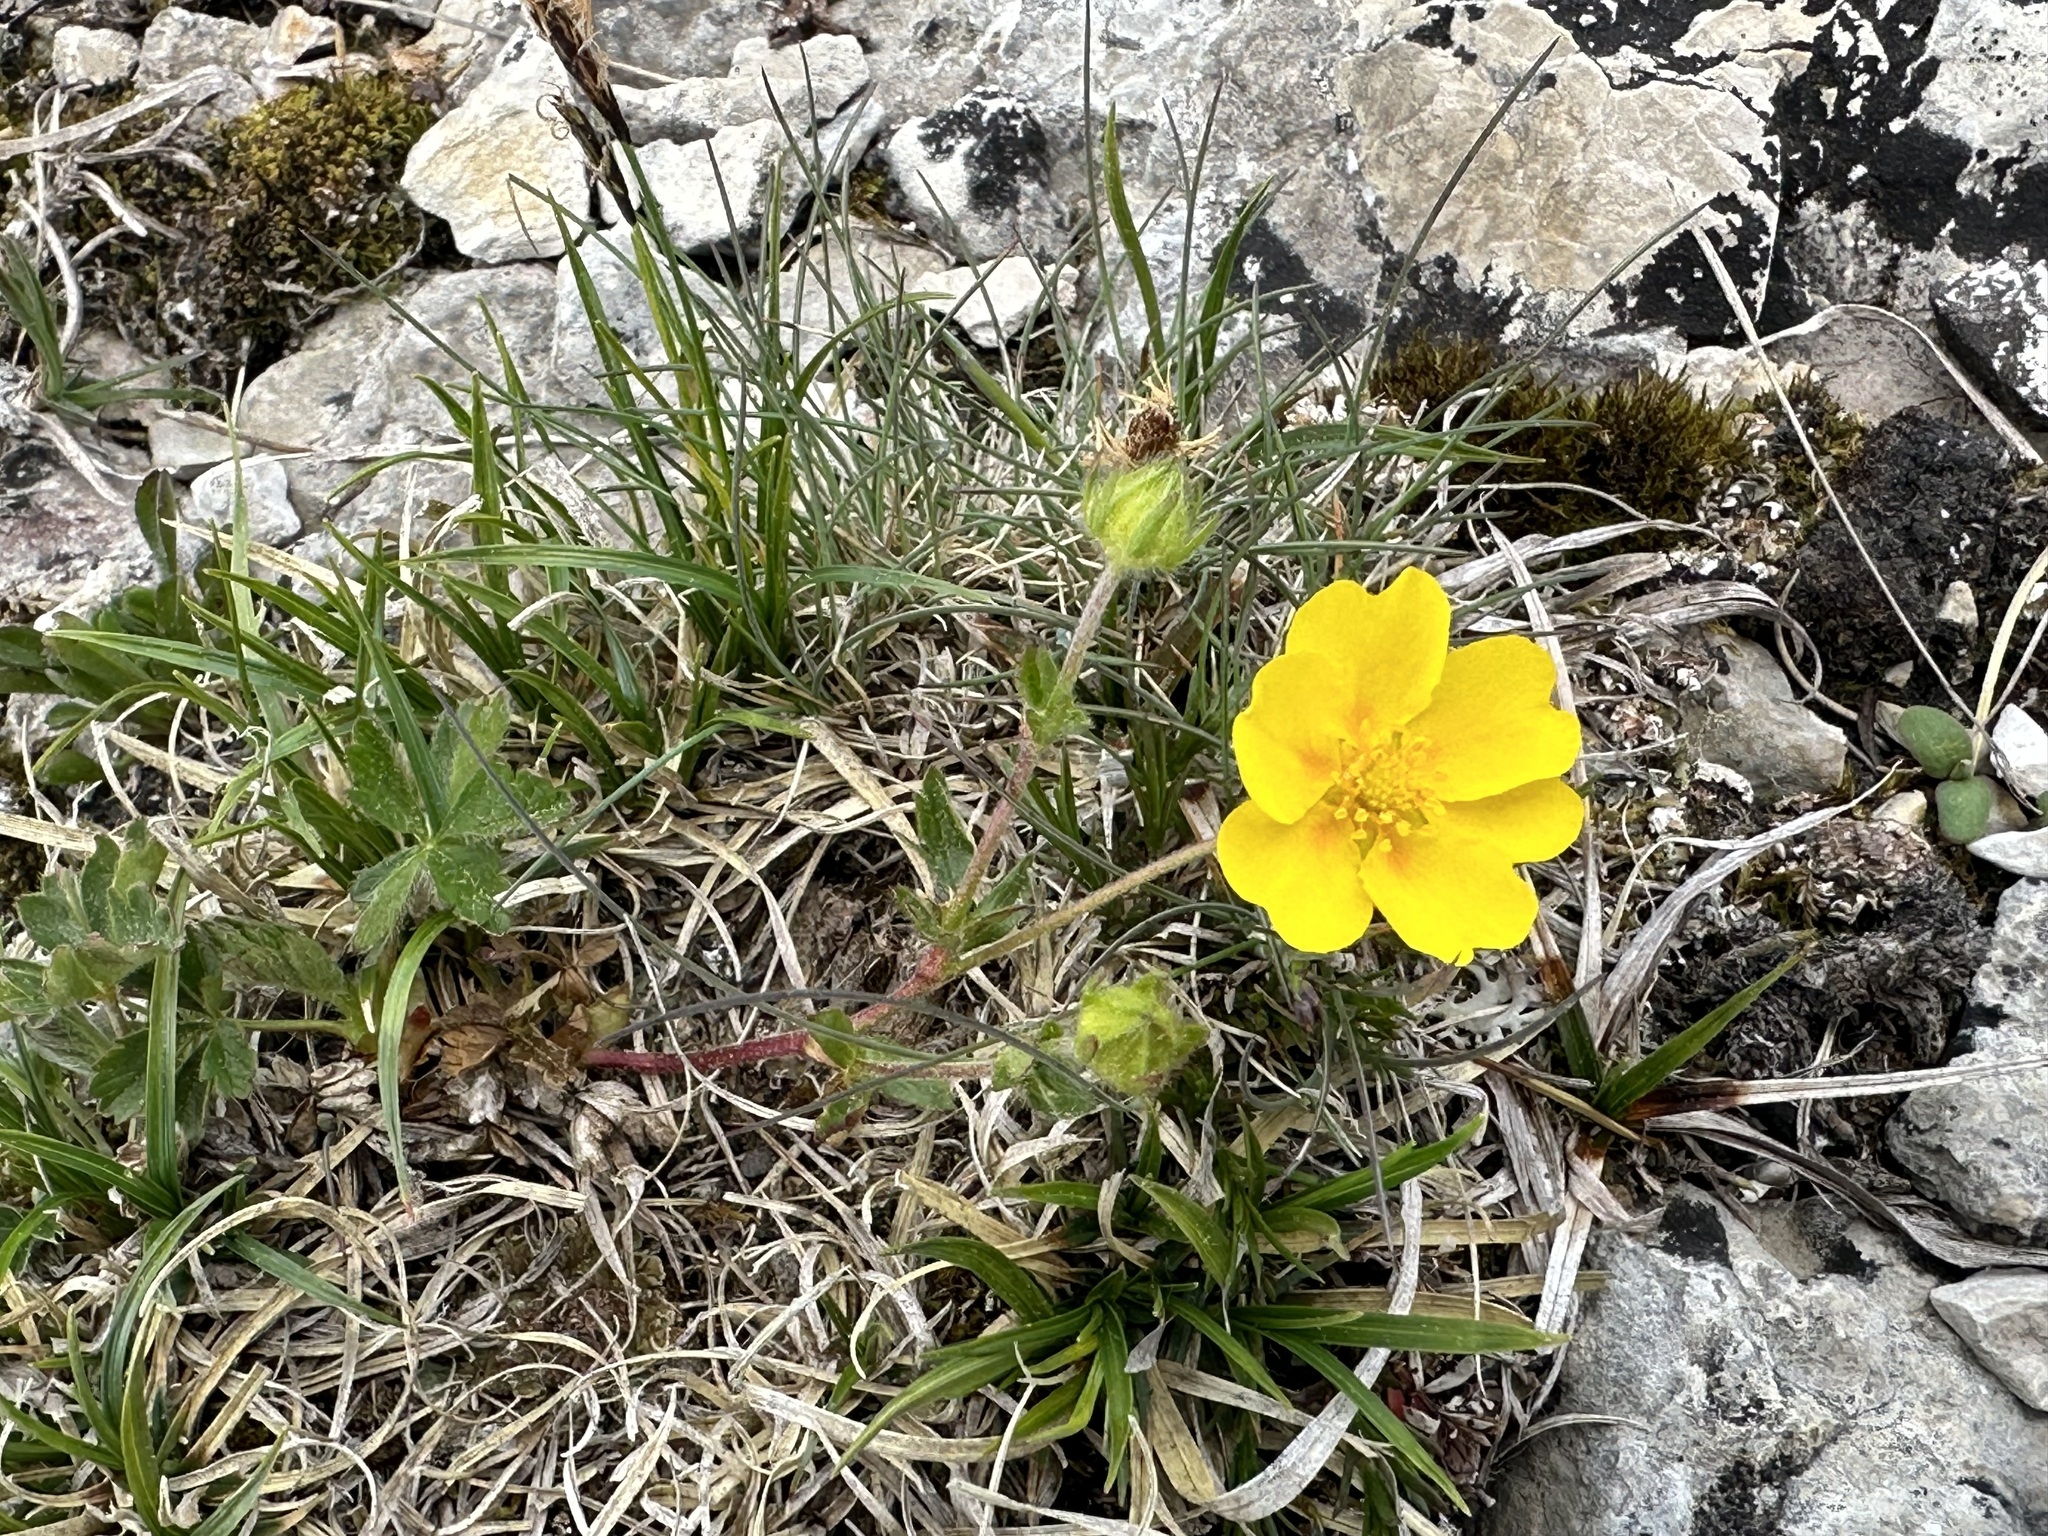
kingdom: Plantae
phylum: Tracheophyta
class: Magnoliopsida
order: Rosales
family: Rosaceae
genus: Potentilla
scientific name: Potentilla crantzii
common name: Alpine cinquefoil
